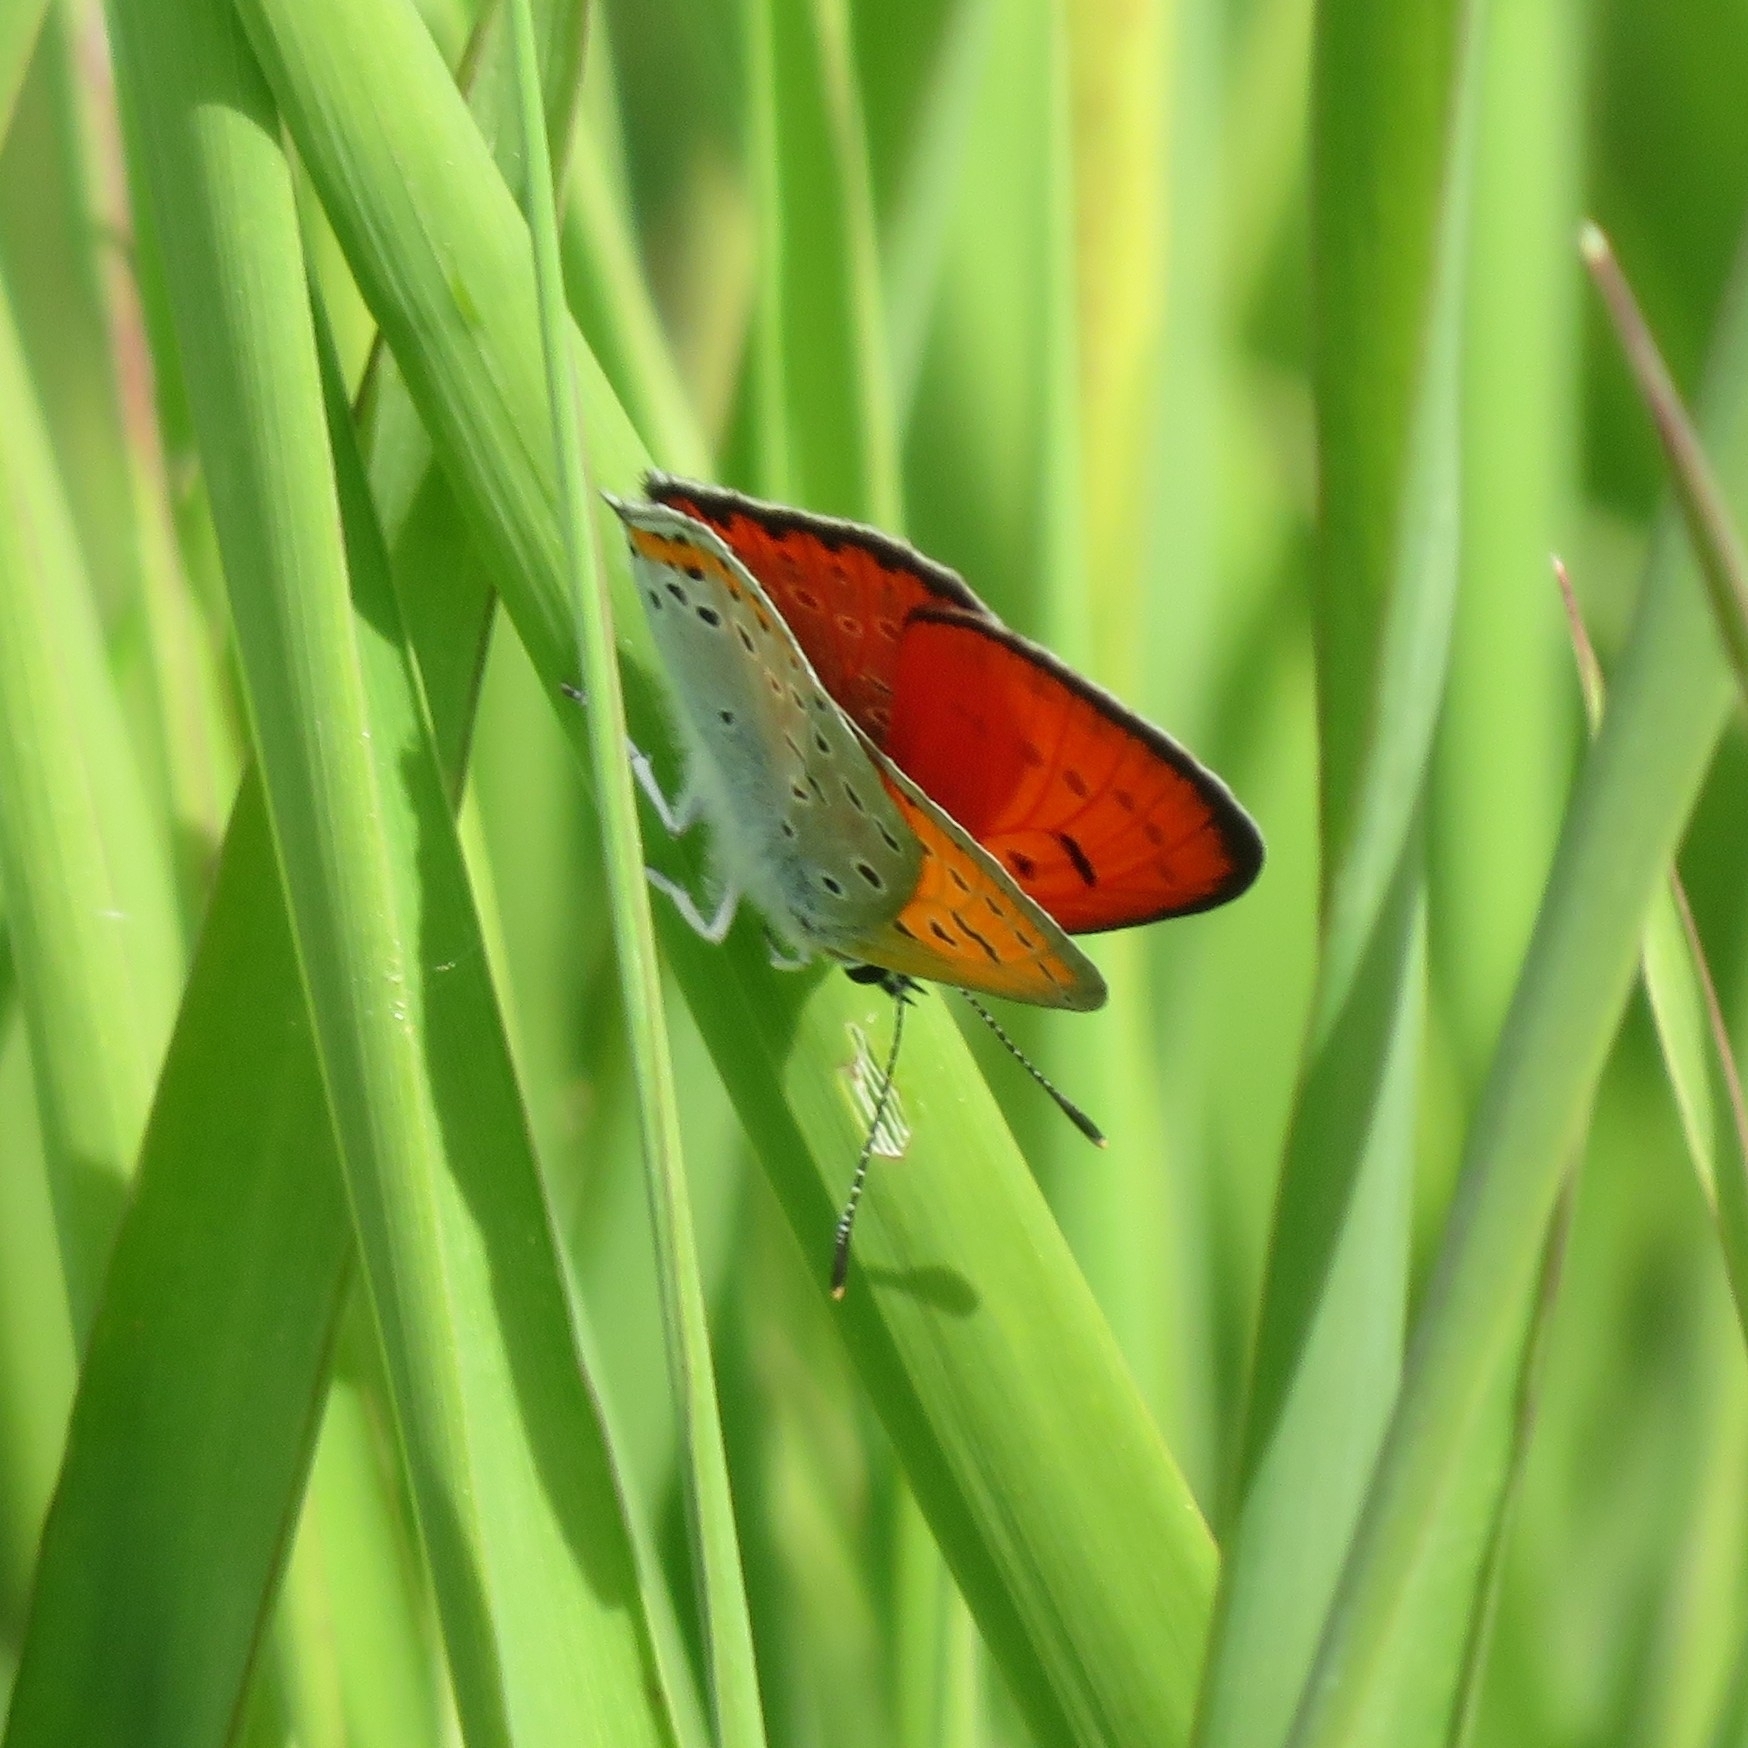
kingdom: Animalia
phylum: Arthropoda
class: Insecta
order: Lepidoptera
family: Lycaenidae
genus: Lycaena
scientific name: Lycaena dispar
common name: Large copper
